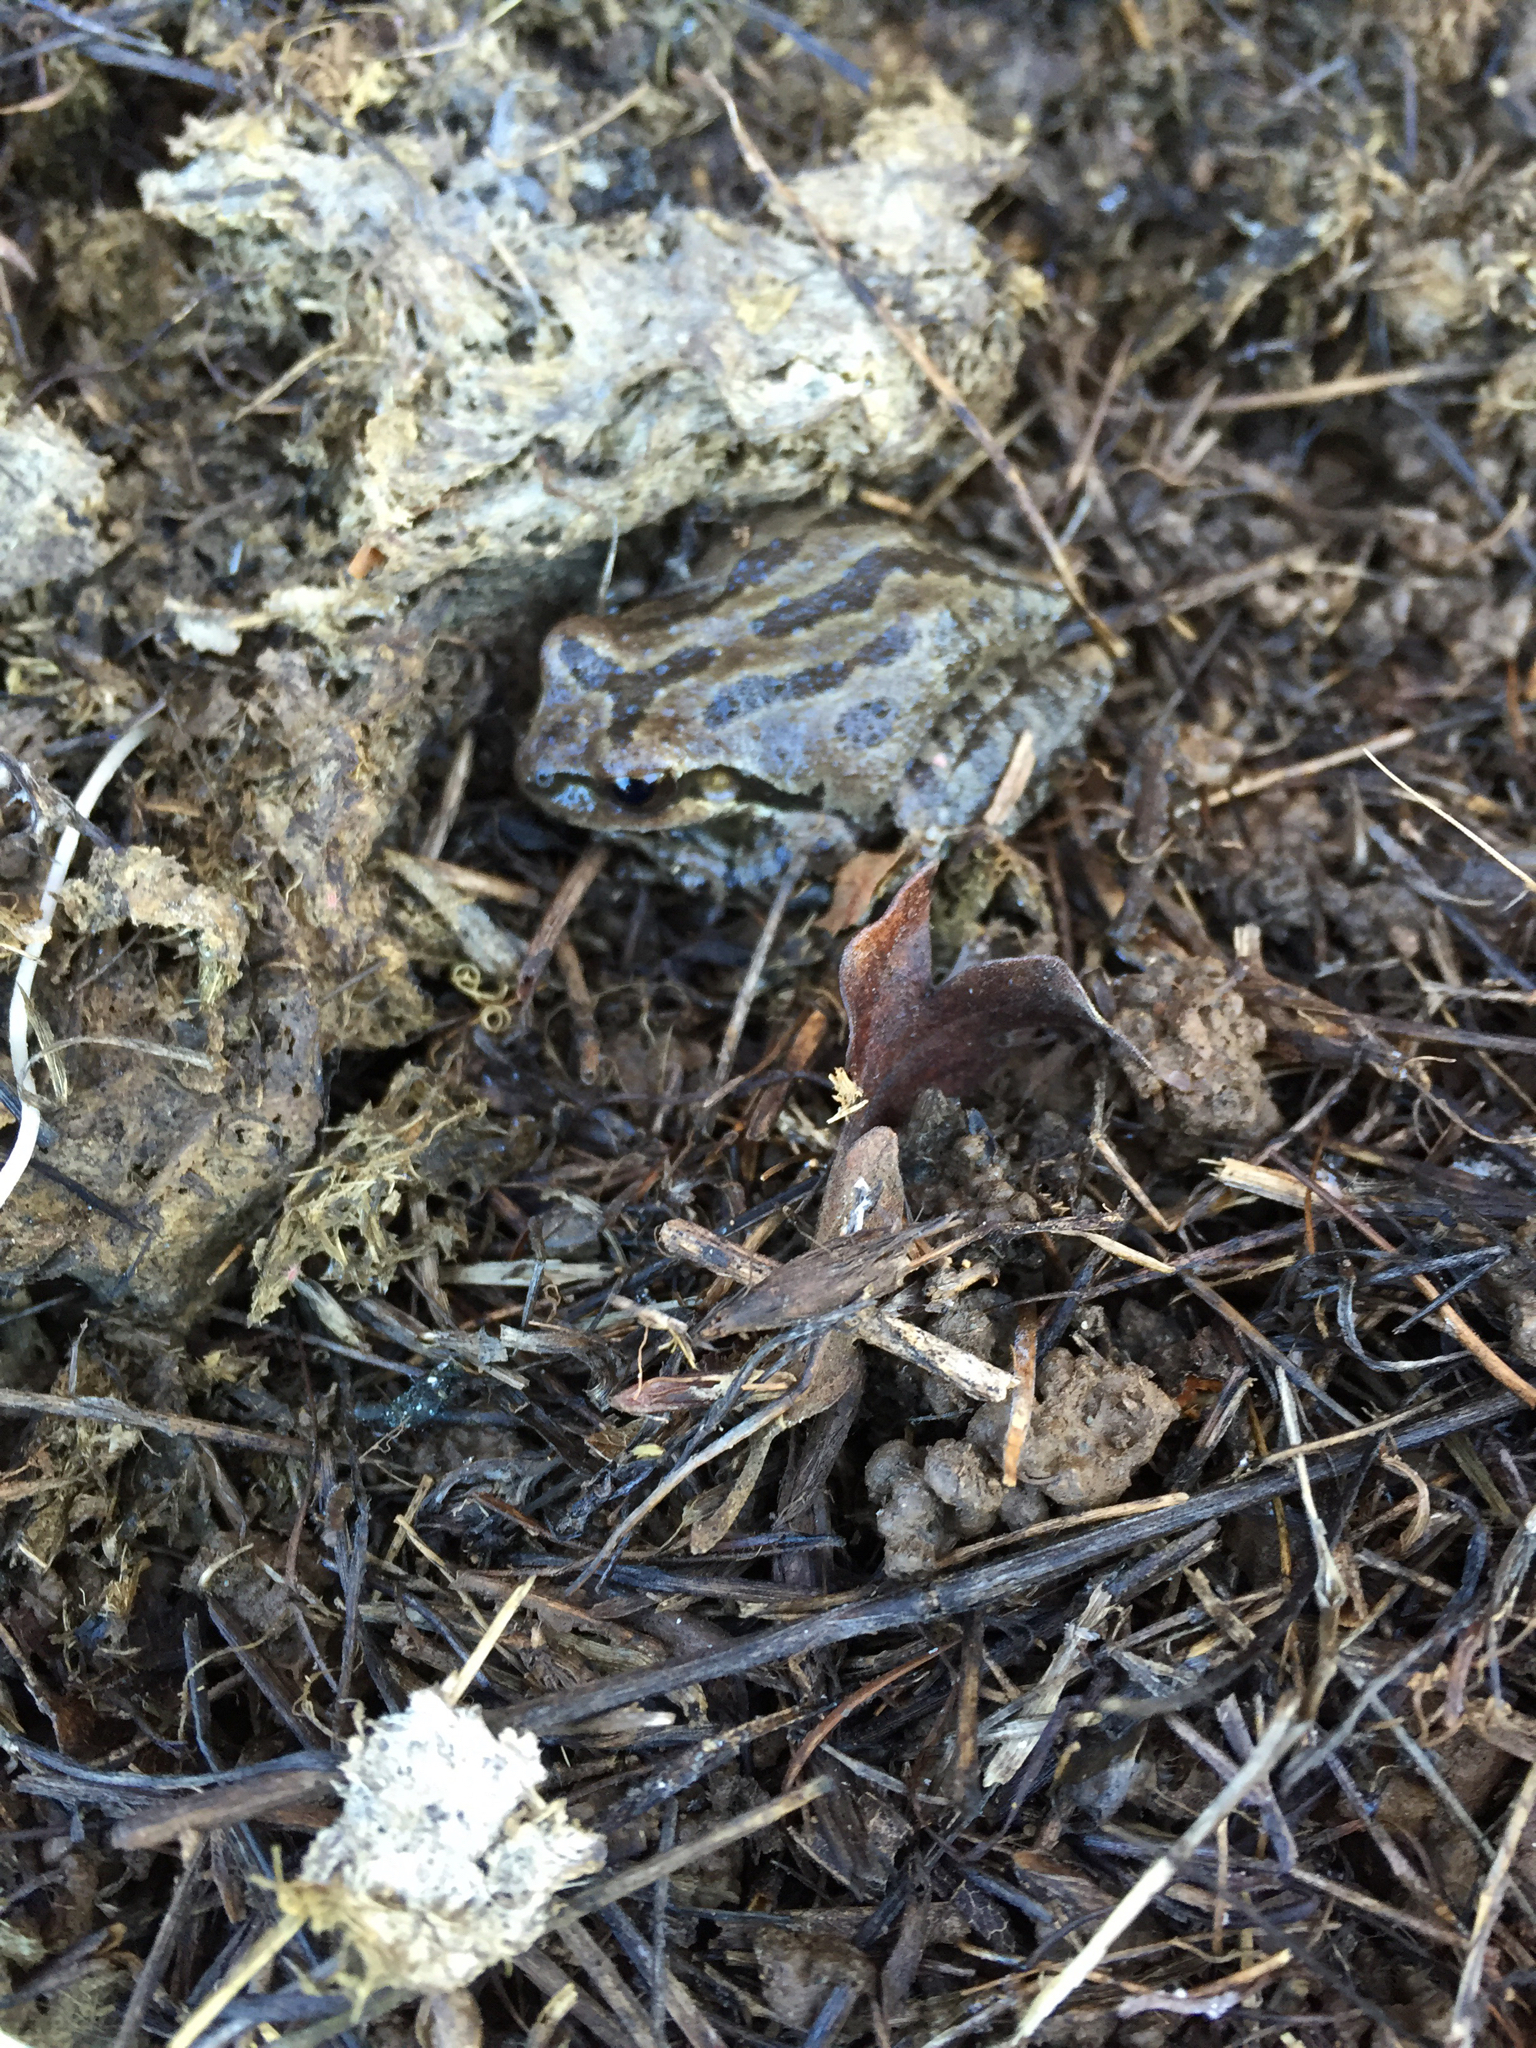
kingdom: Animalia
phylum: Chordata
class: Amphibia
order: Anura
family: Hylidae
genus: Pseudacris
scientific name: Pseudacris regilla
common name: Pacific chorus frog
